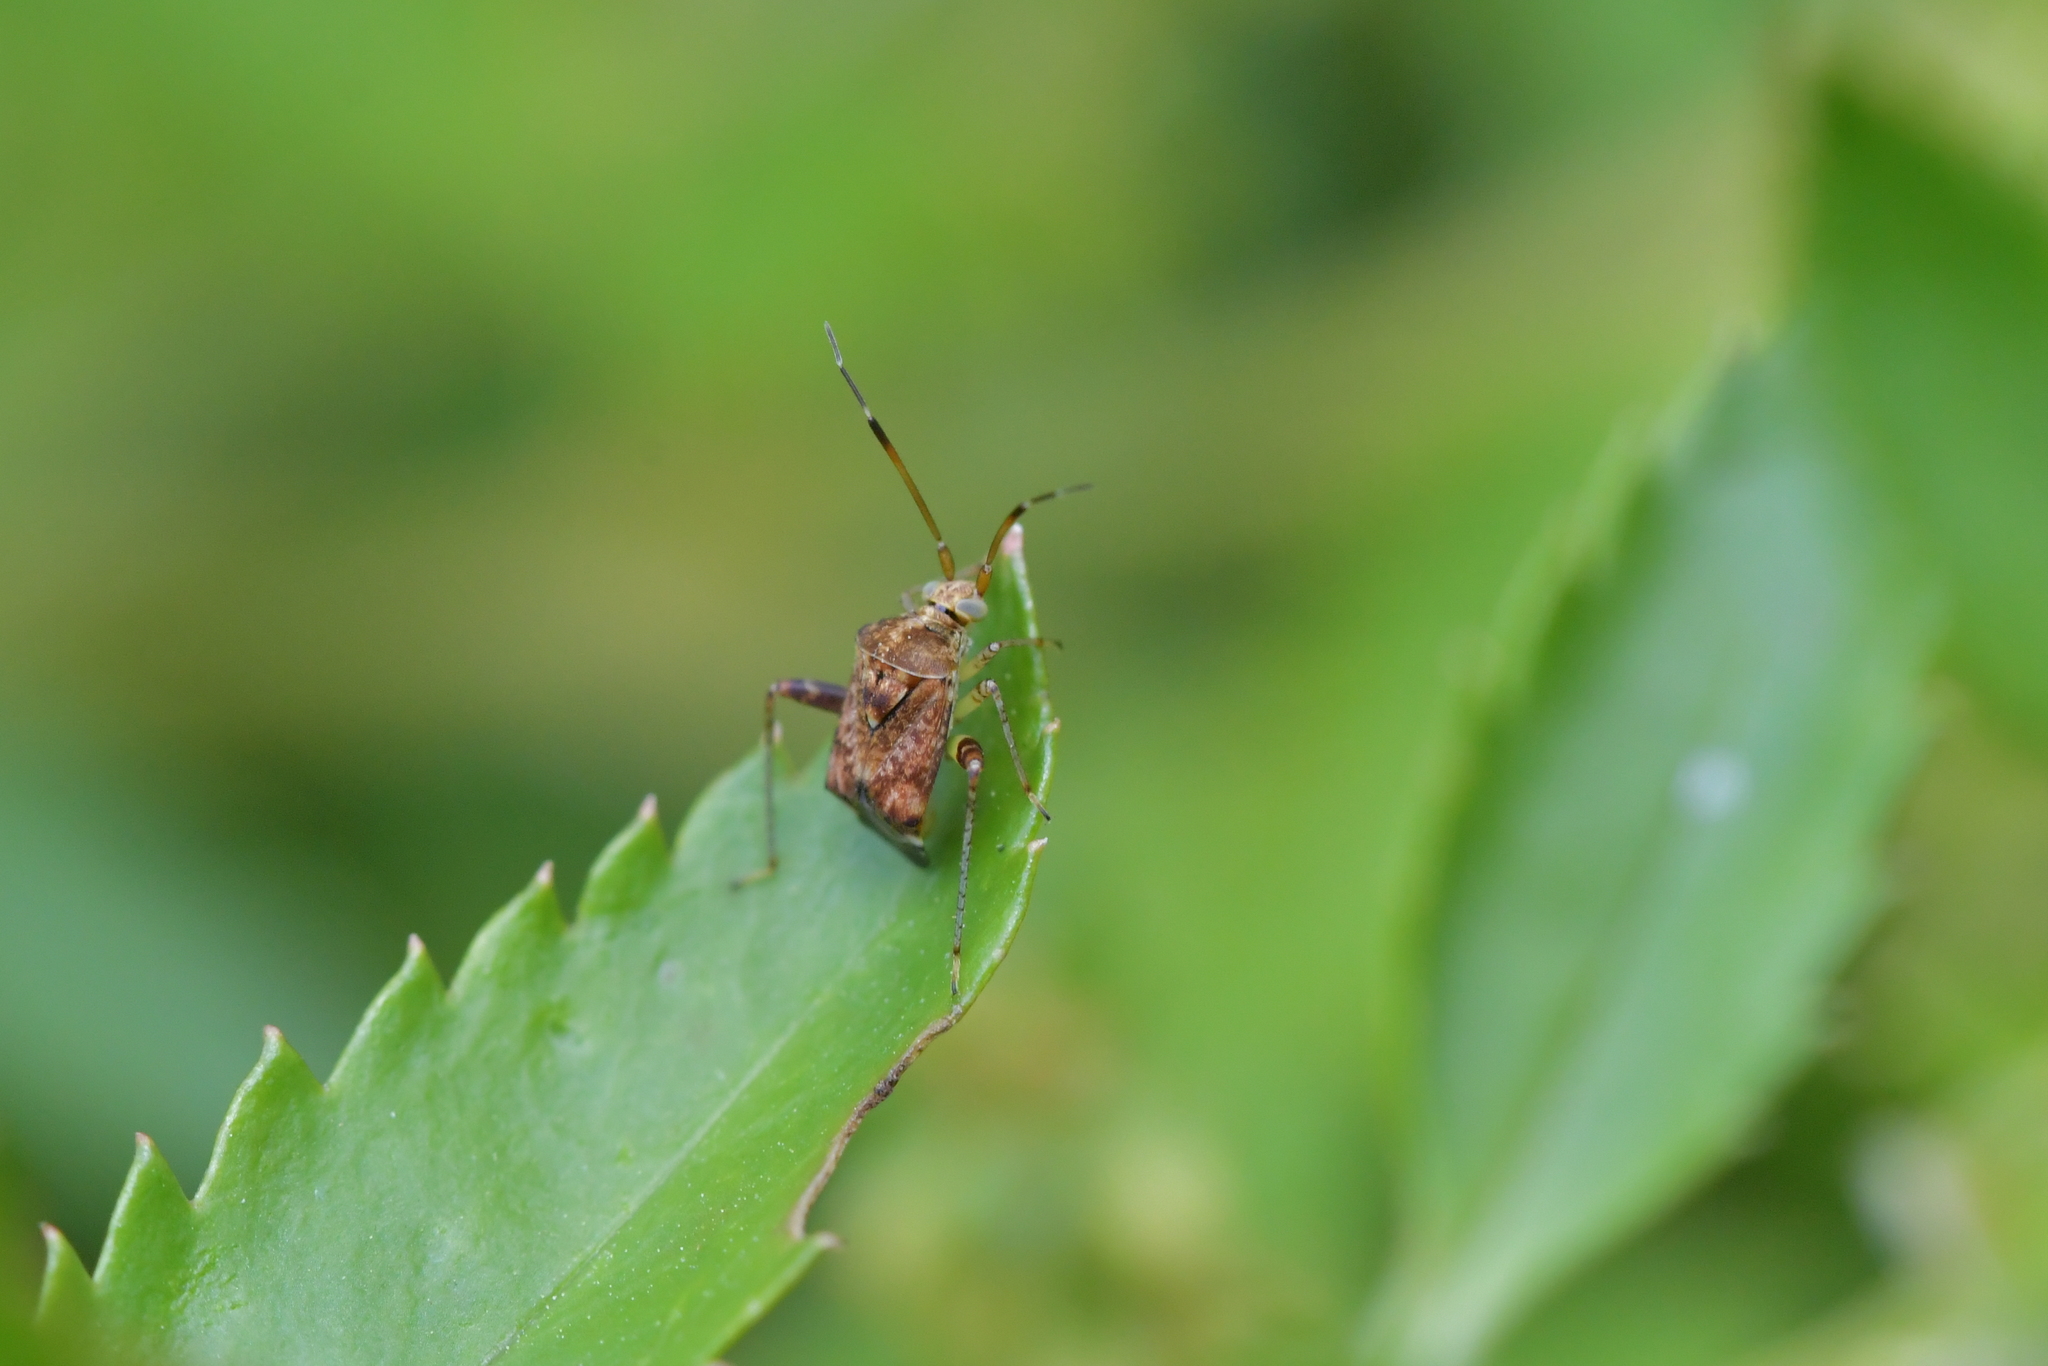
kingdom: Animalia
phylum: Arthropoda
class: Insecta
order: Hemiptera
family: Miridae
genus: Sidnia
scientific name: Sidnia kinbergi
